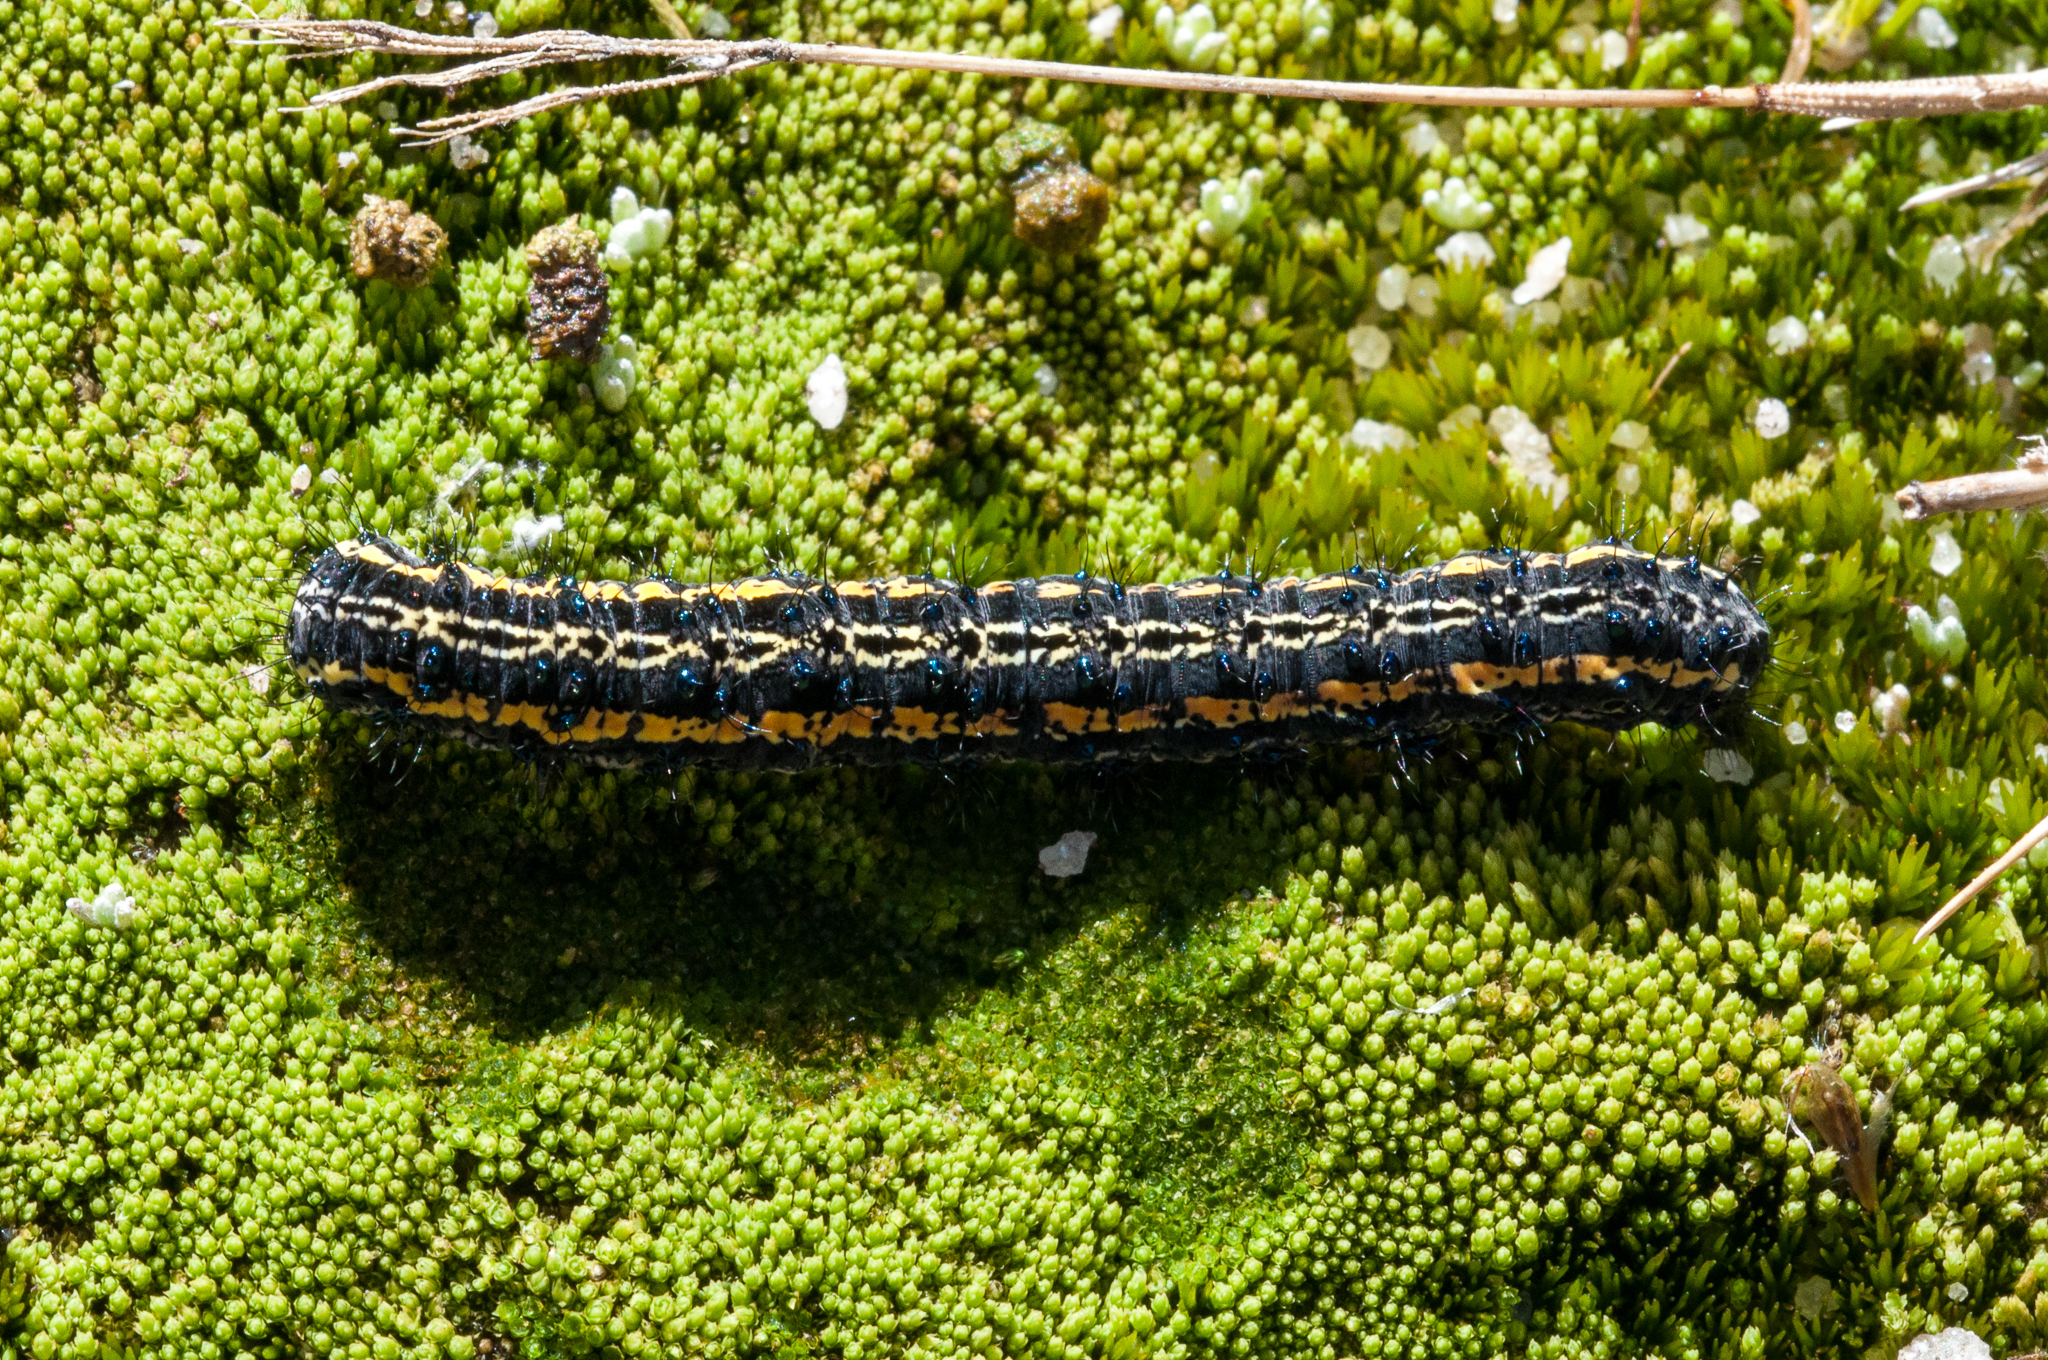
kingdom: Animalia
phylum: Arthropoda
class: Insecta
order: Lepidoptera
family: Erebidae
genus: Procanthia
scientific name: Procanthia distanti
